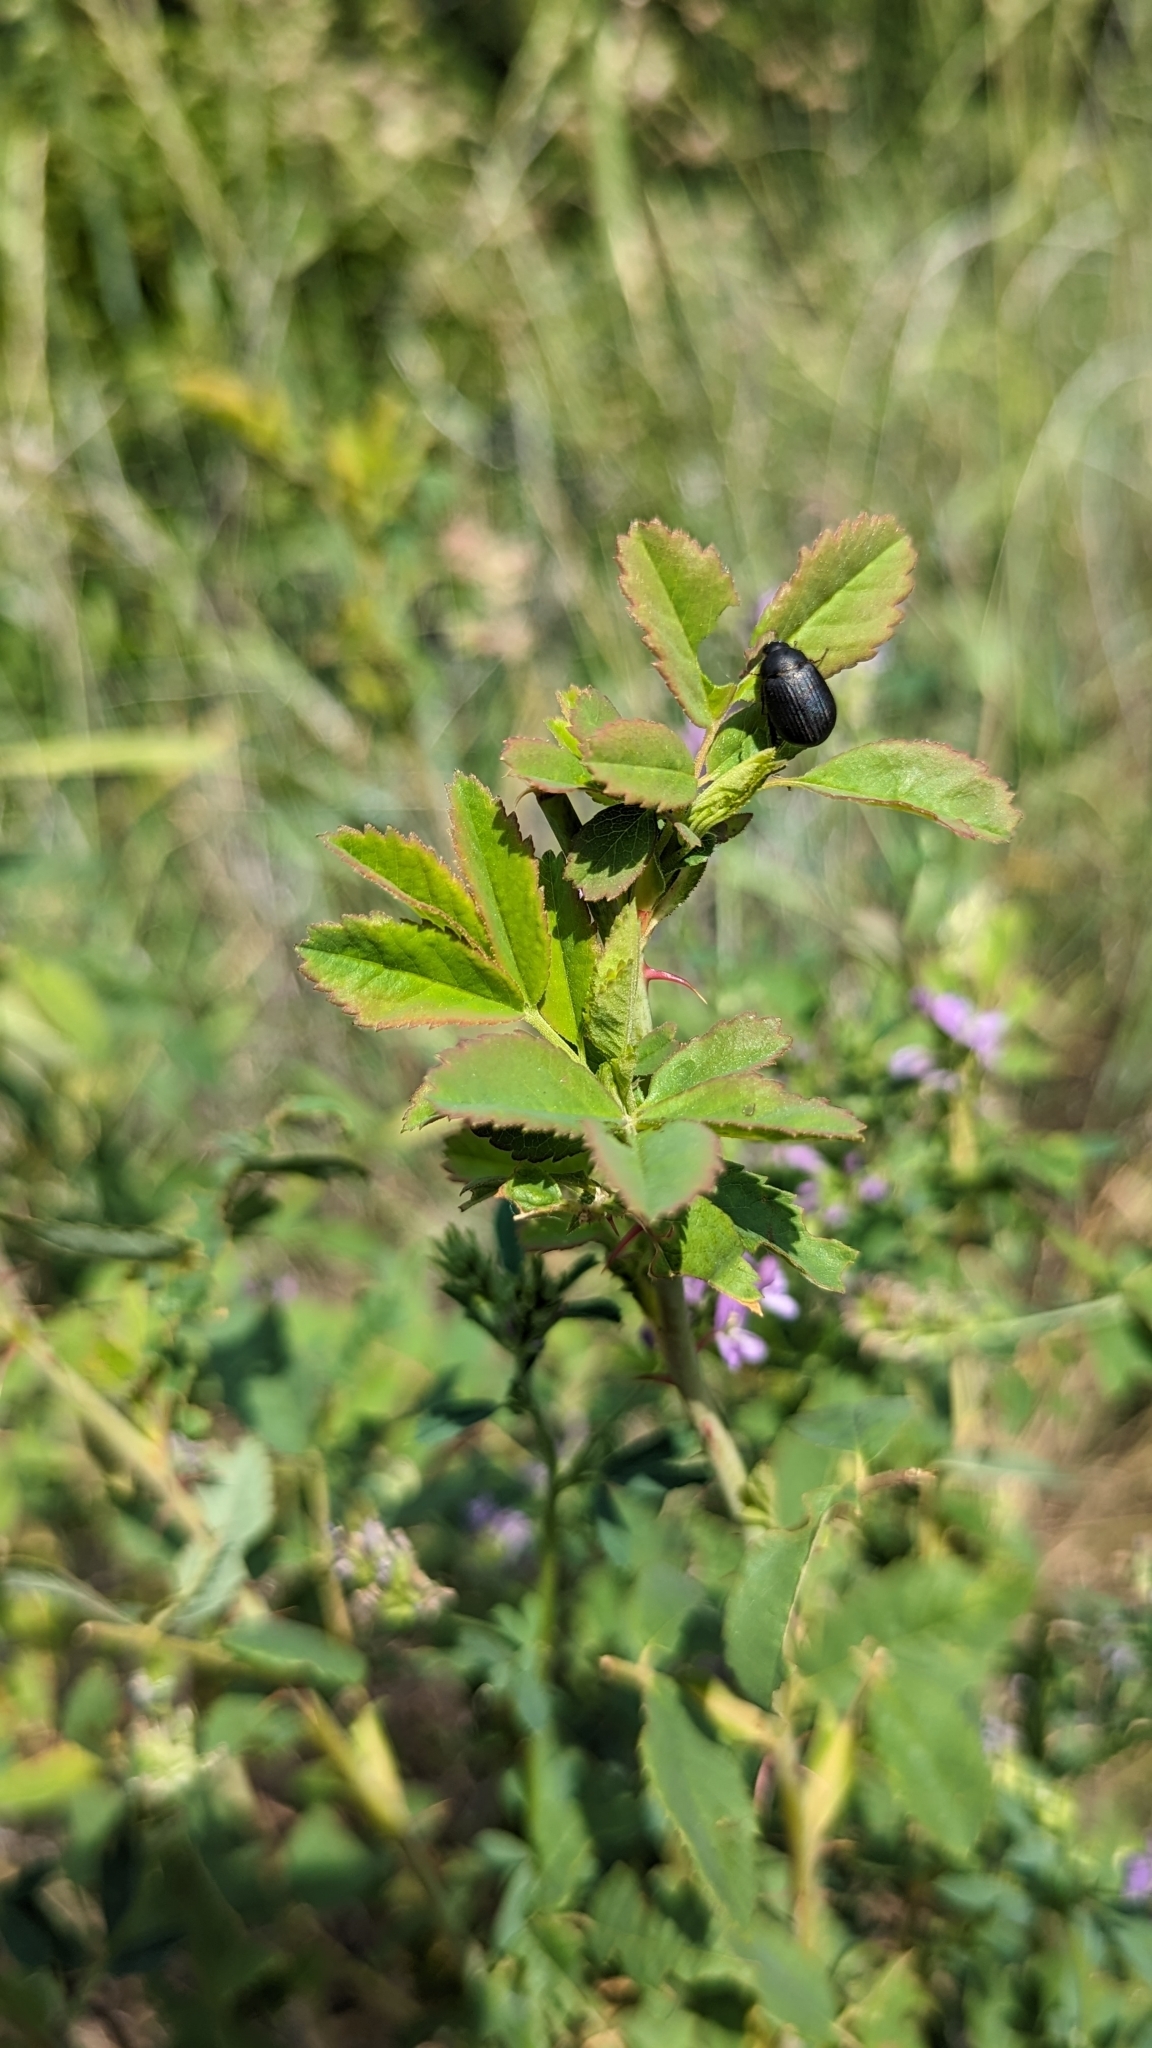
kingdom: Plantae
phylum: Tracheophyta
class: Magnoliopsida
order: Fabales
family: Fabaceae
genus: Medicago
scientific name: Medicago sativa
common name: Alfalfa
